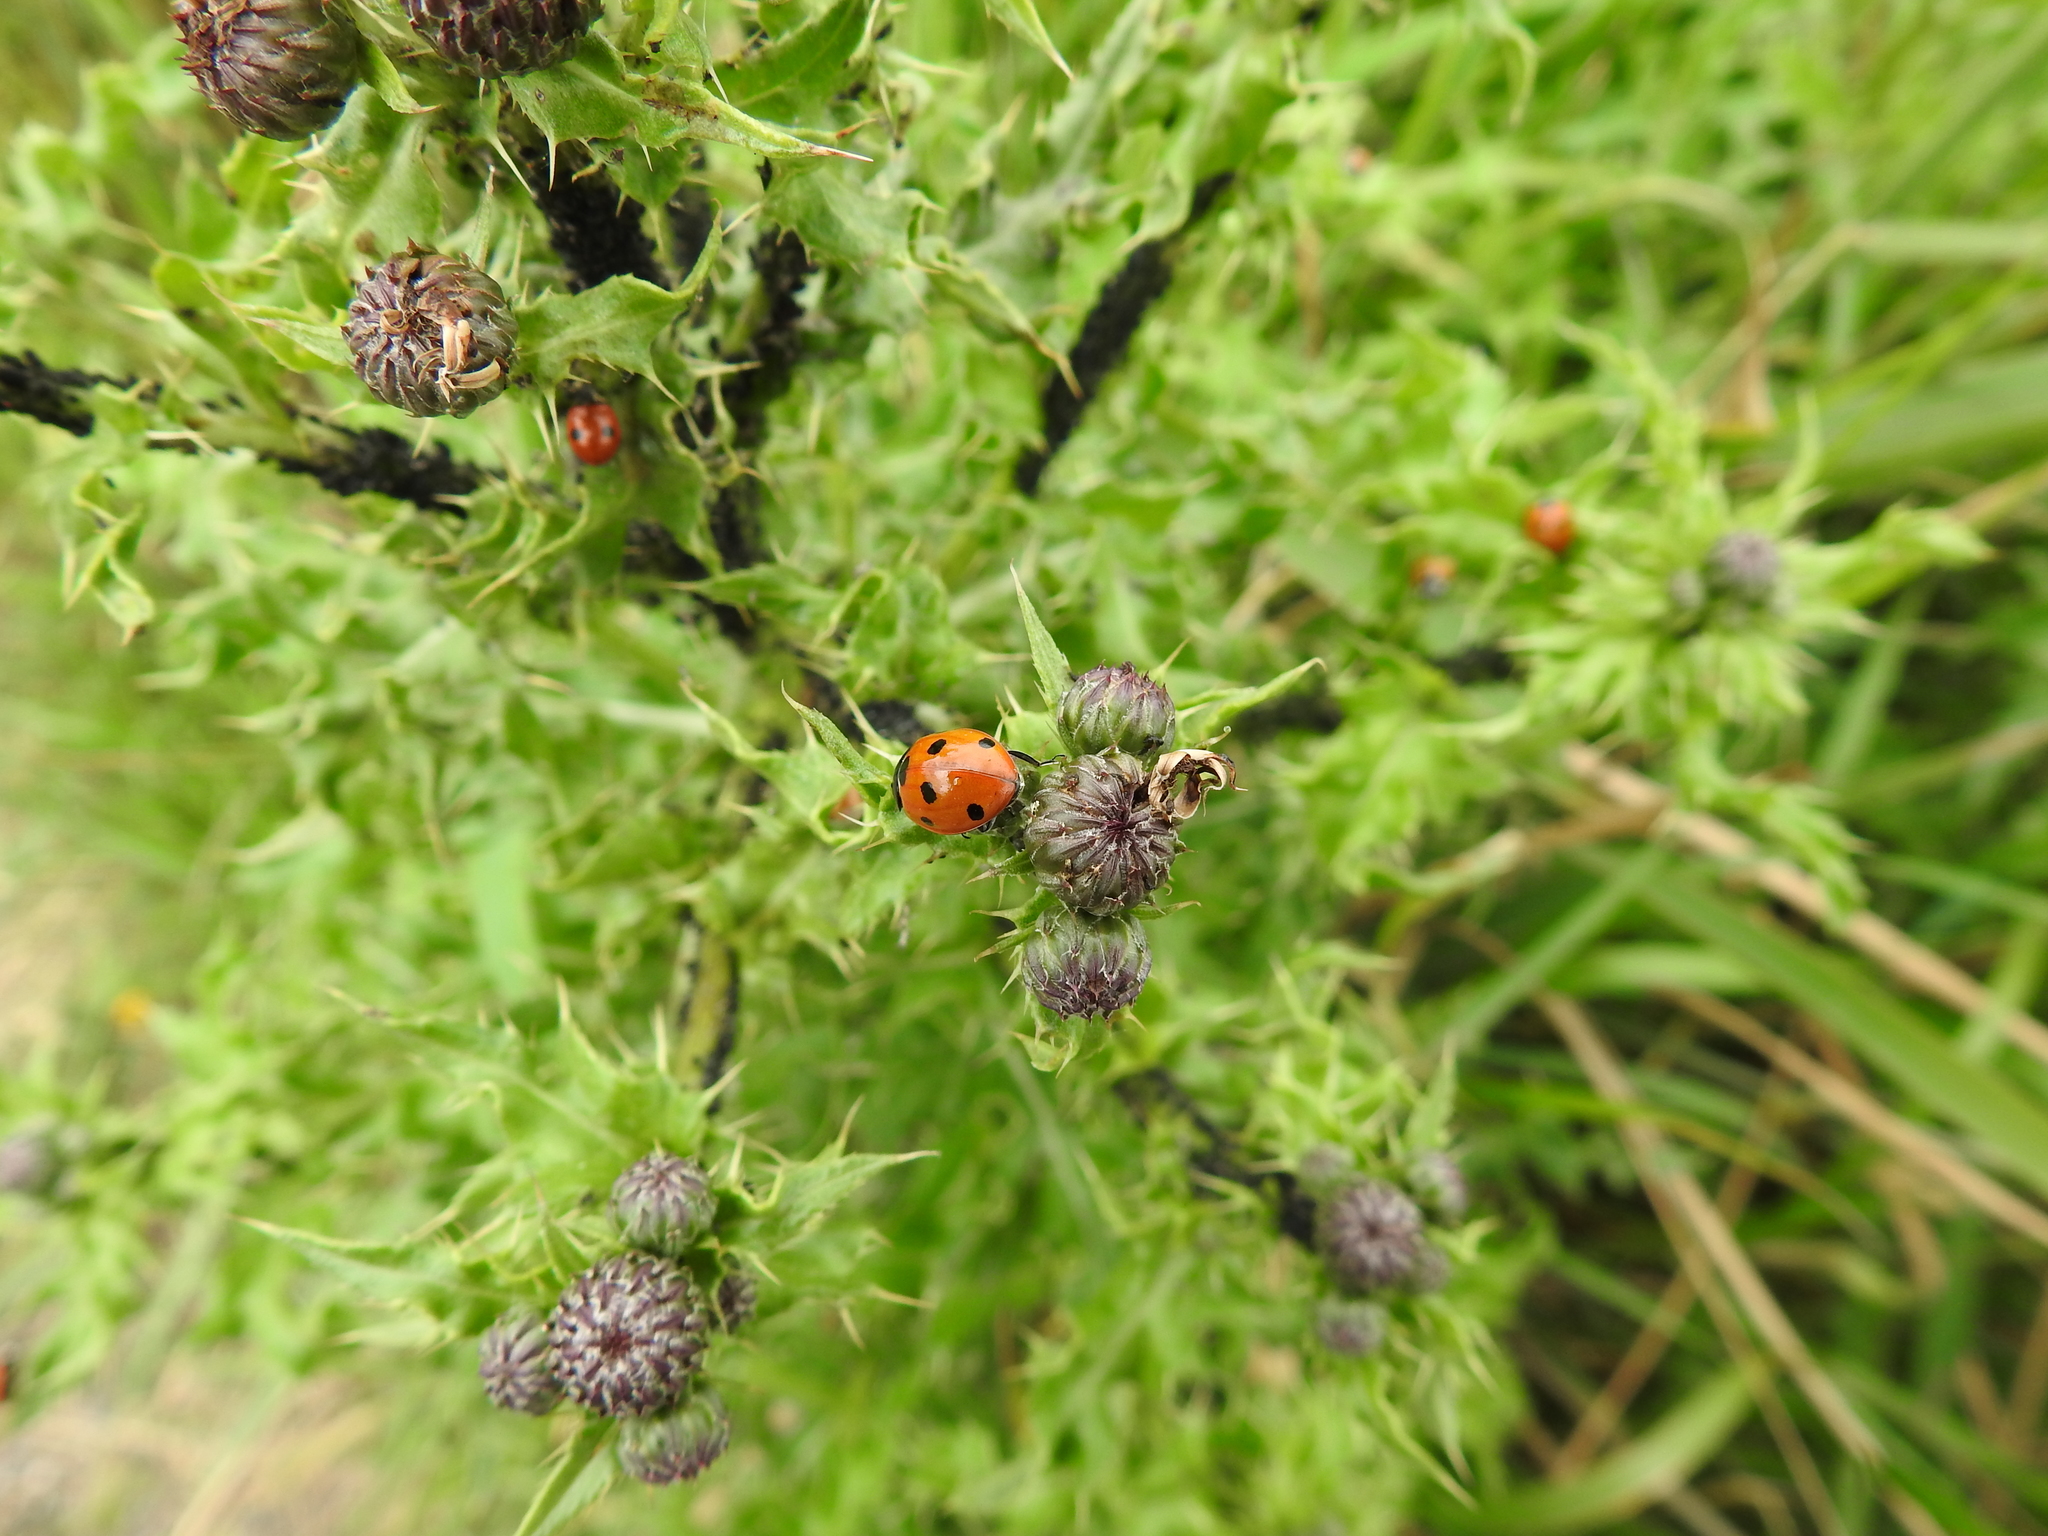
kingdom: Animalia
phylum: Arthropoda
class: Insecta
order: Coleoptera
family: Coccinellidae
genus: Coccinella
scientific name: Coccinella septempunctata
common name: Sevenspotted lady beetle
